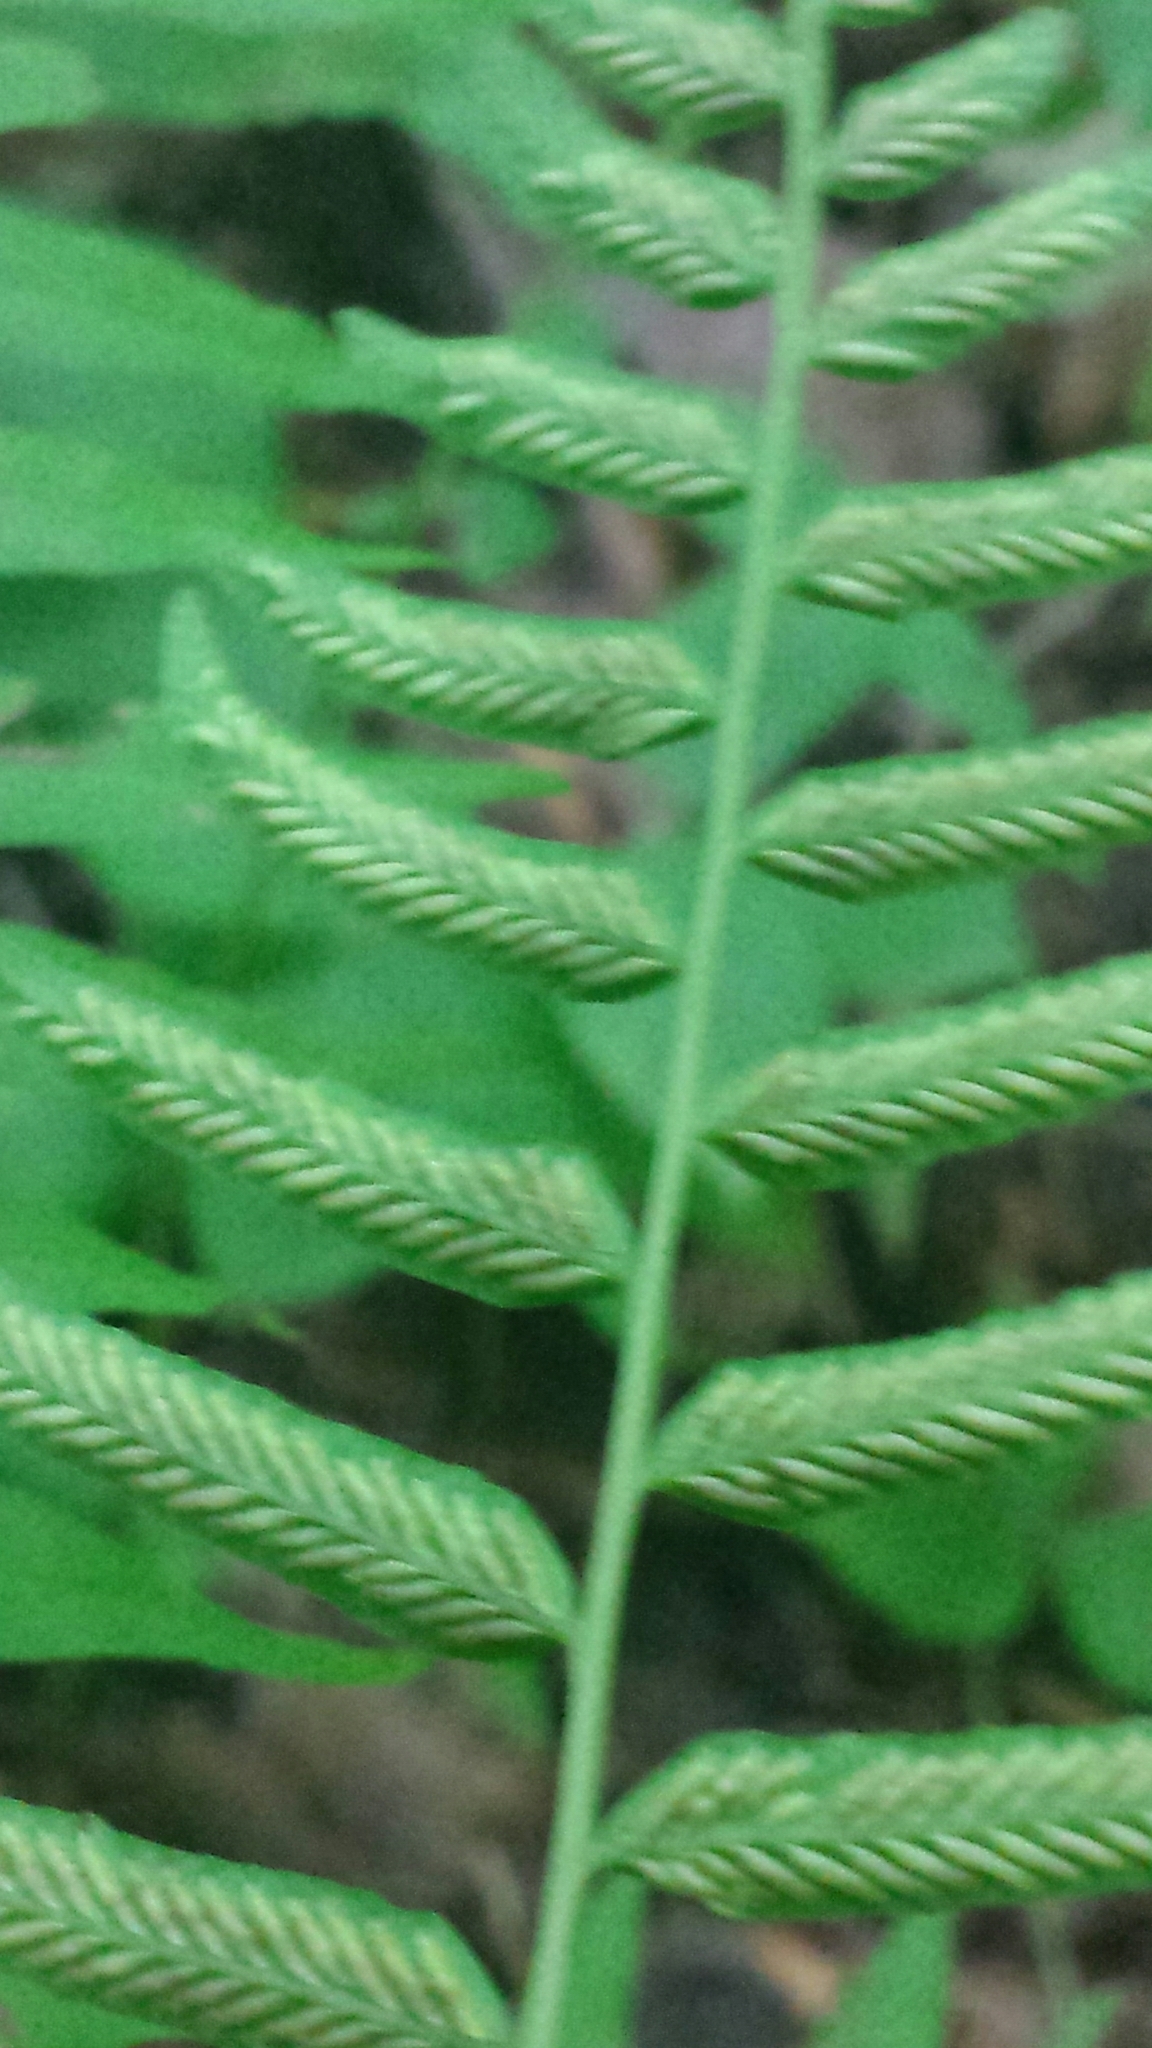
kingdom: Plantae
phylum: Tracheophyta
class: Polypodiopsida
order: Polypodiales
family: Diplaziopsidaceae
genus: Homalosorus
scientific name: Homalosorus pycnocarpos
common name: Glade fern
